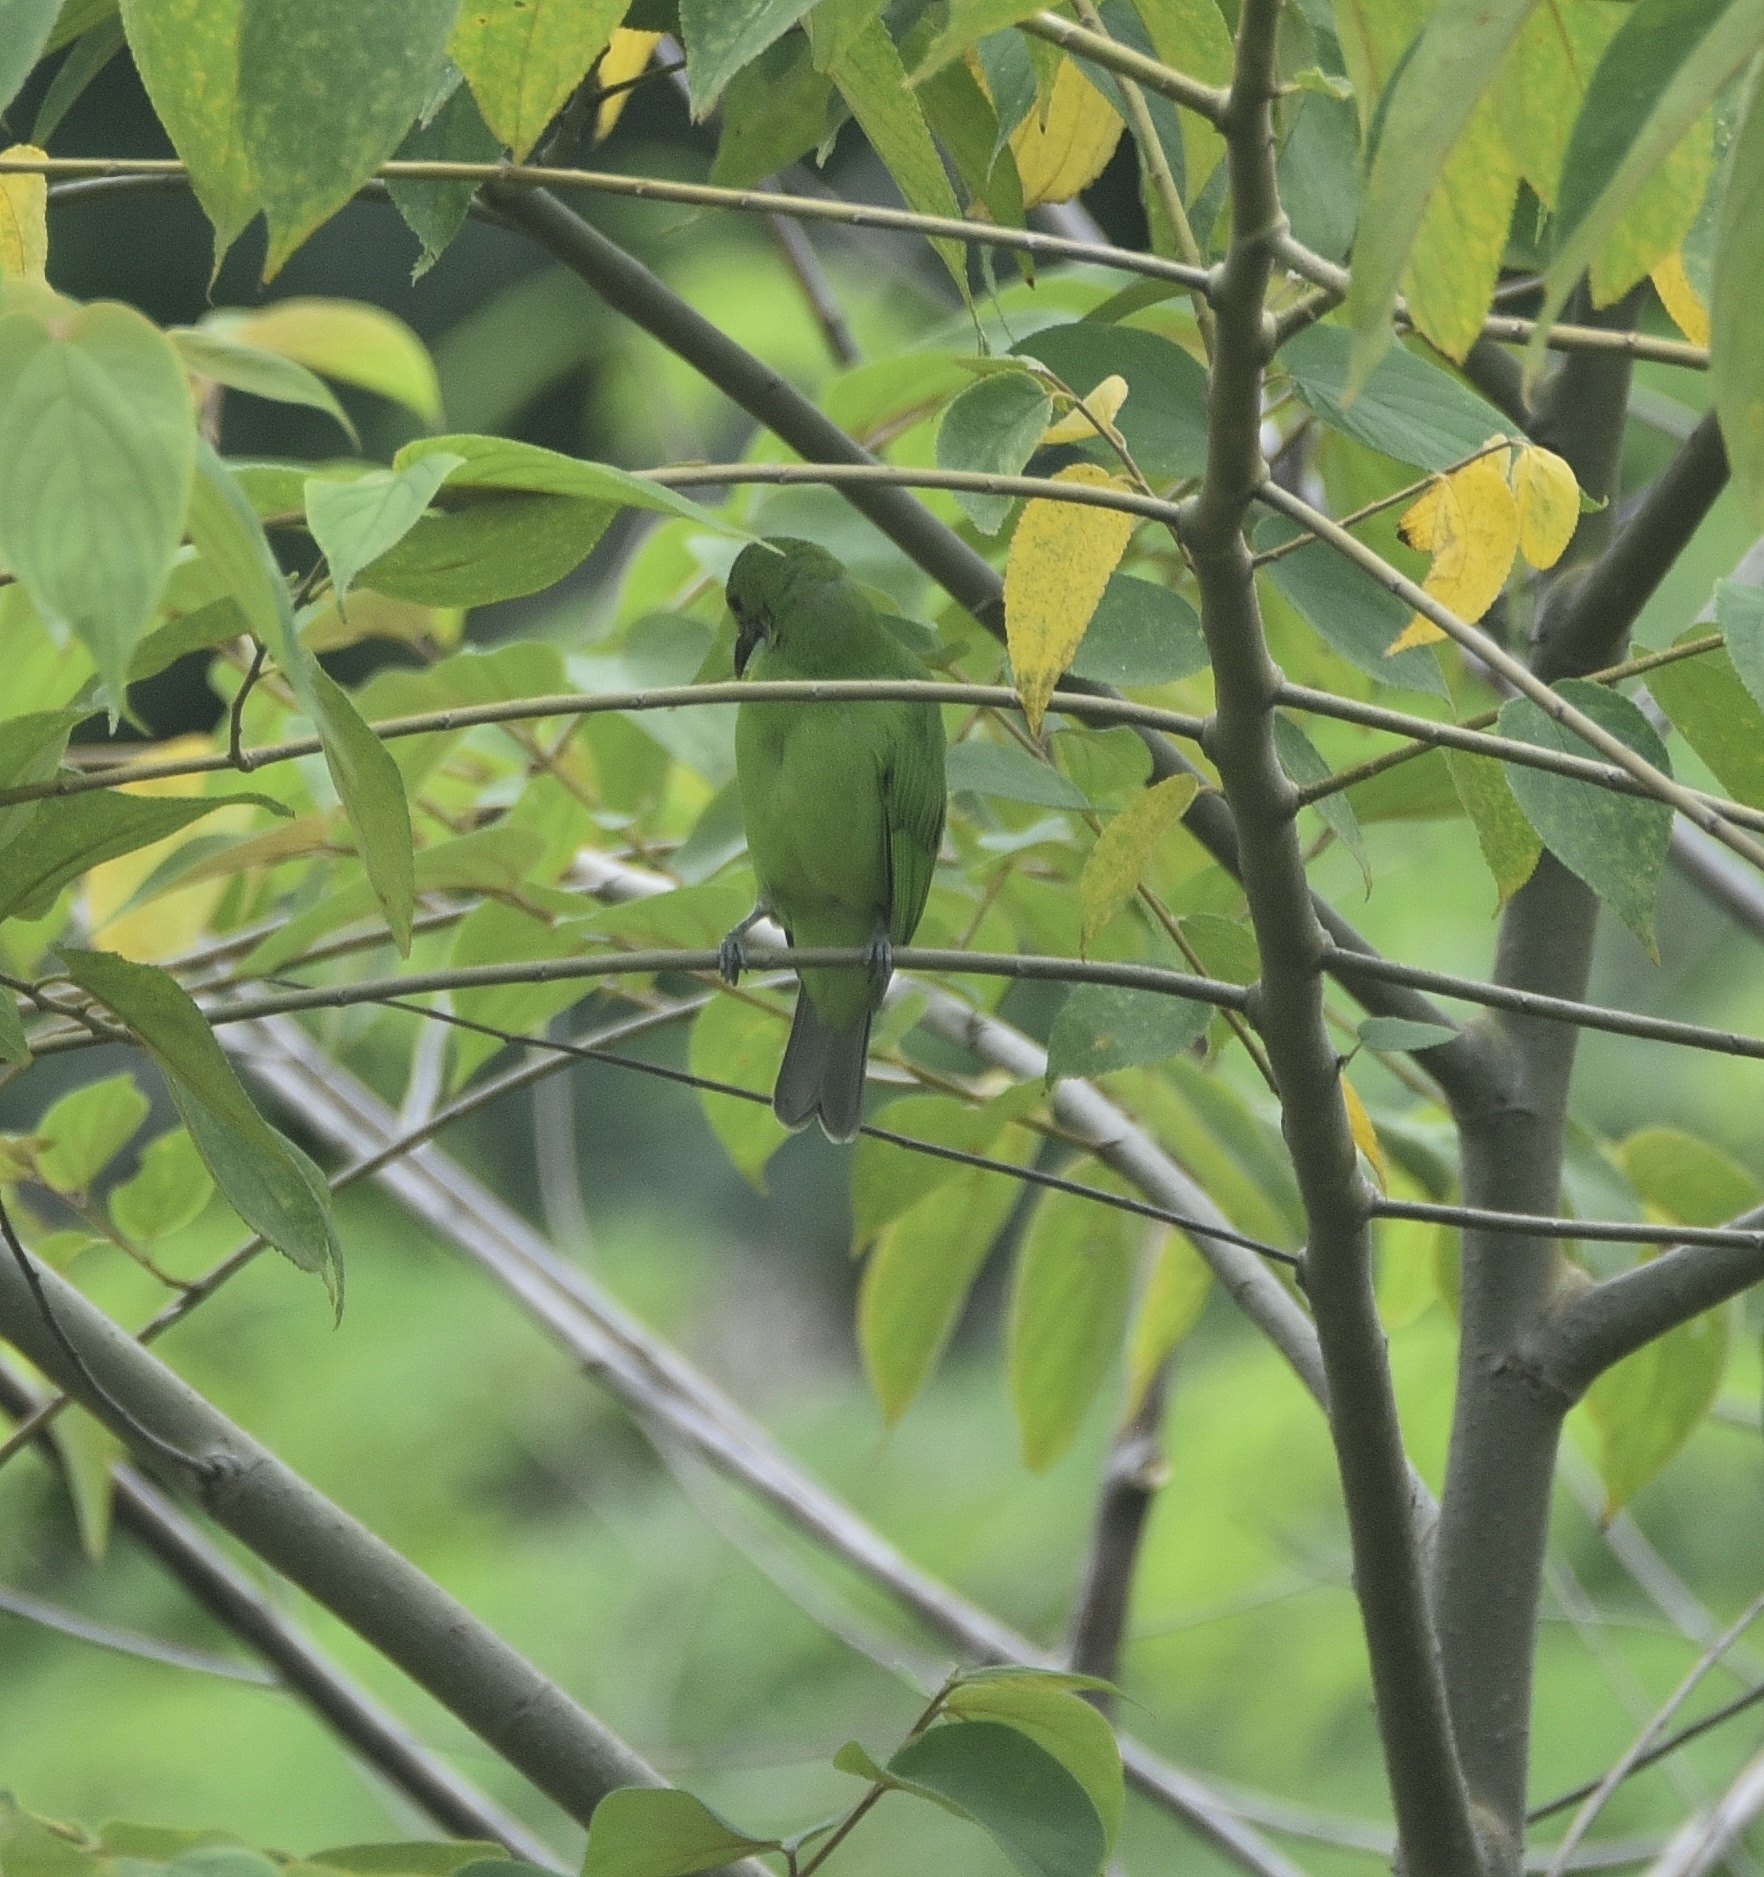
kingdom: Animalia
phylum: Chordata
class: Aves
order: Passeriformes
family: Chloropseidae
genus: Chloropsis
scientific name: Chloropsis aurifrons
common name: Golden-fronted leafbird
